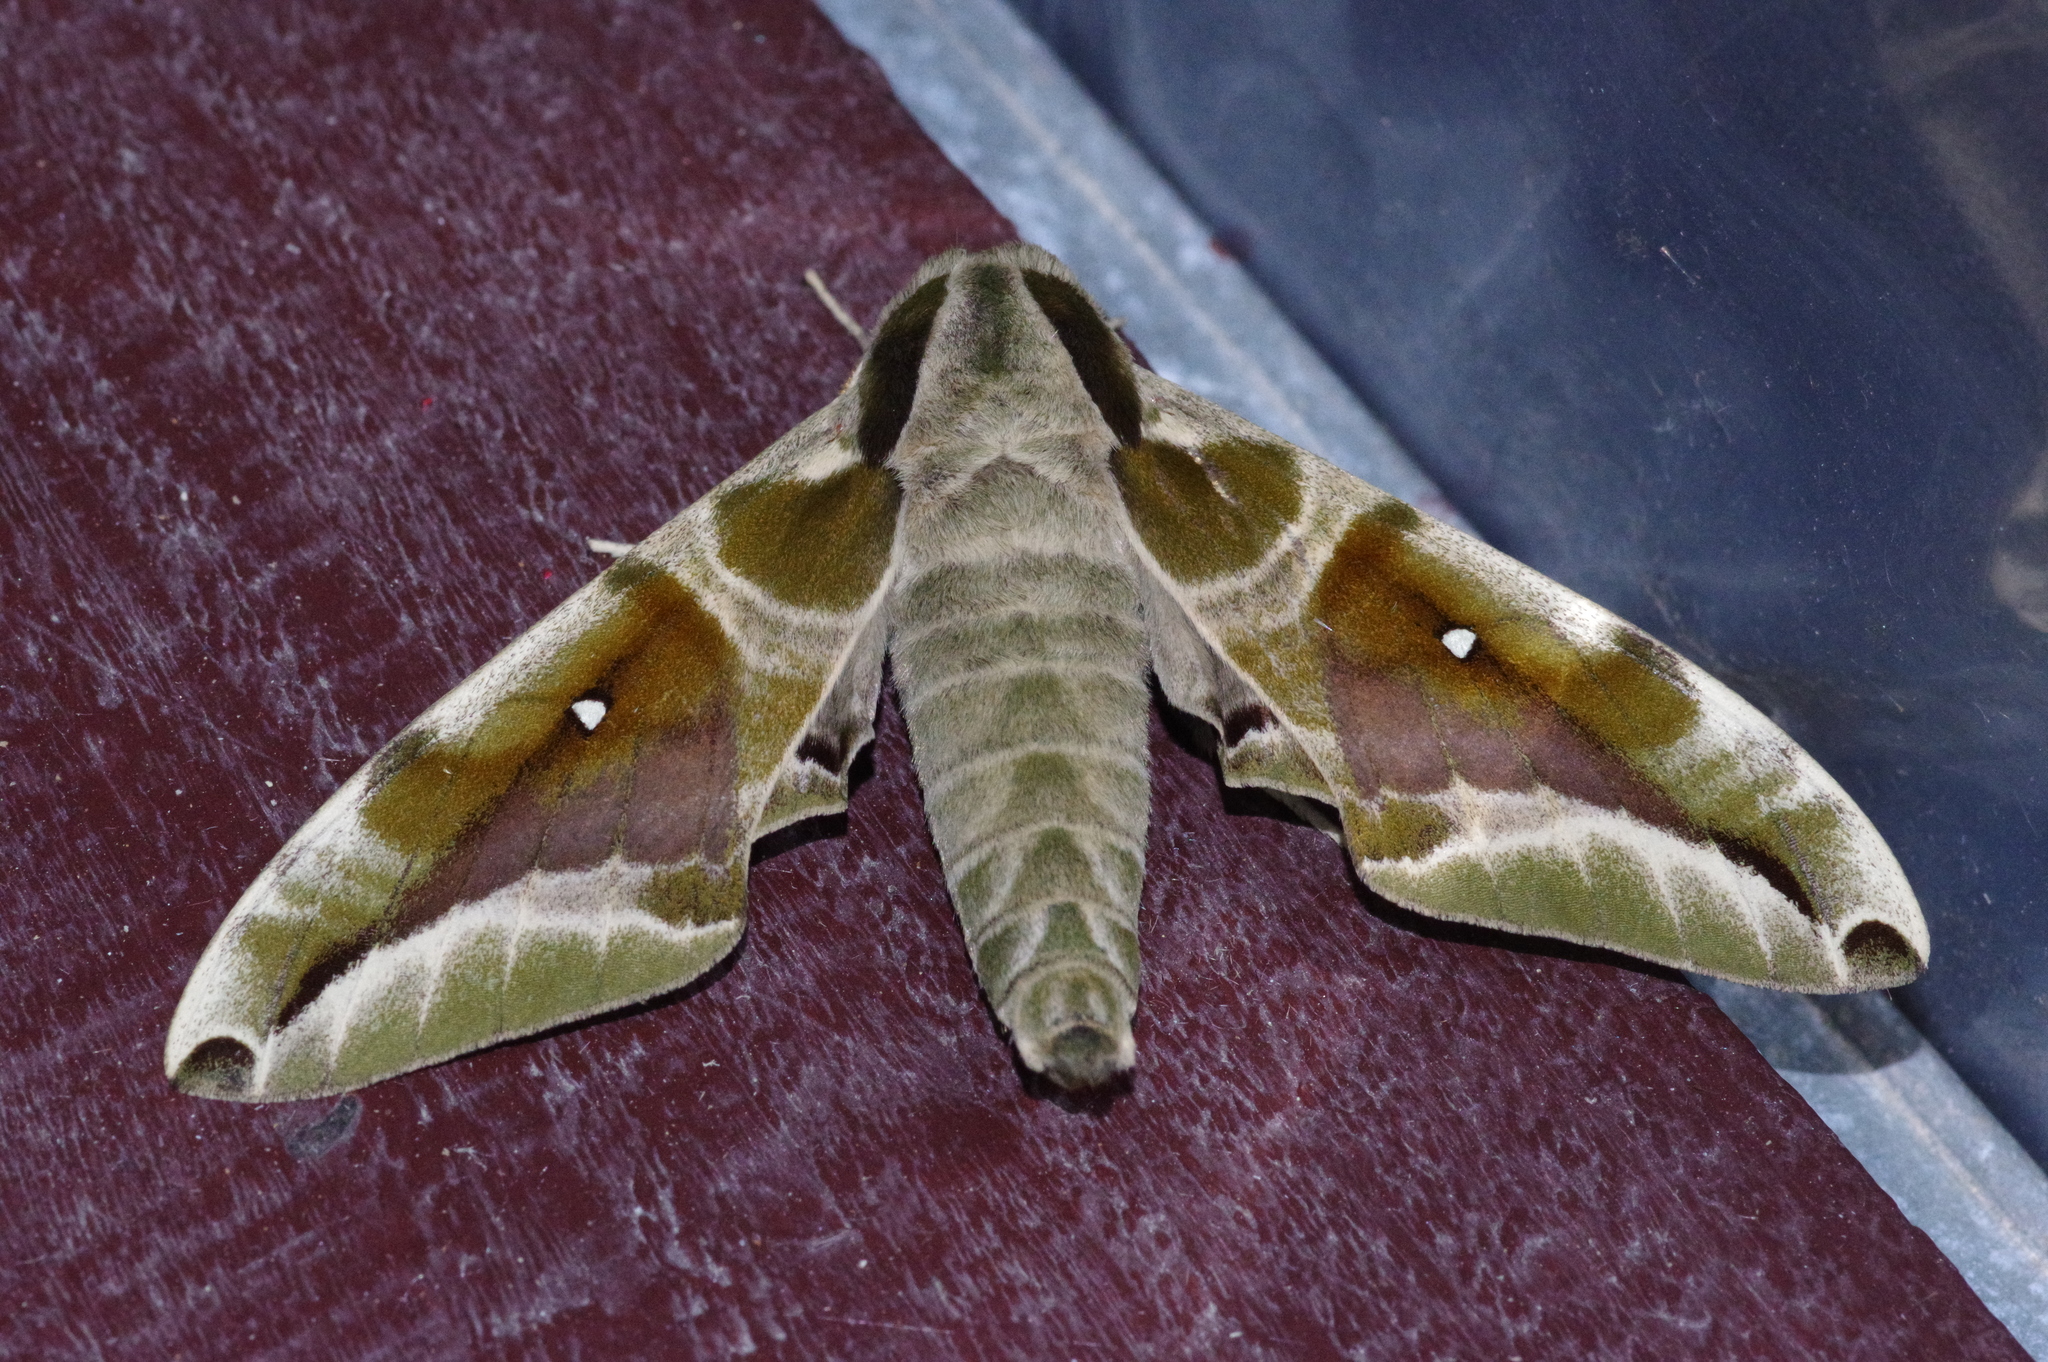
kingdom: Animalia
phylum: Arthropoda
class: Insecta
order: Lepidoptera
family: Sphingidae
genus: Parum
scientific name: Parum colligata
